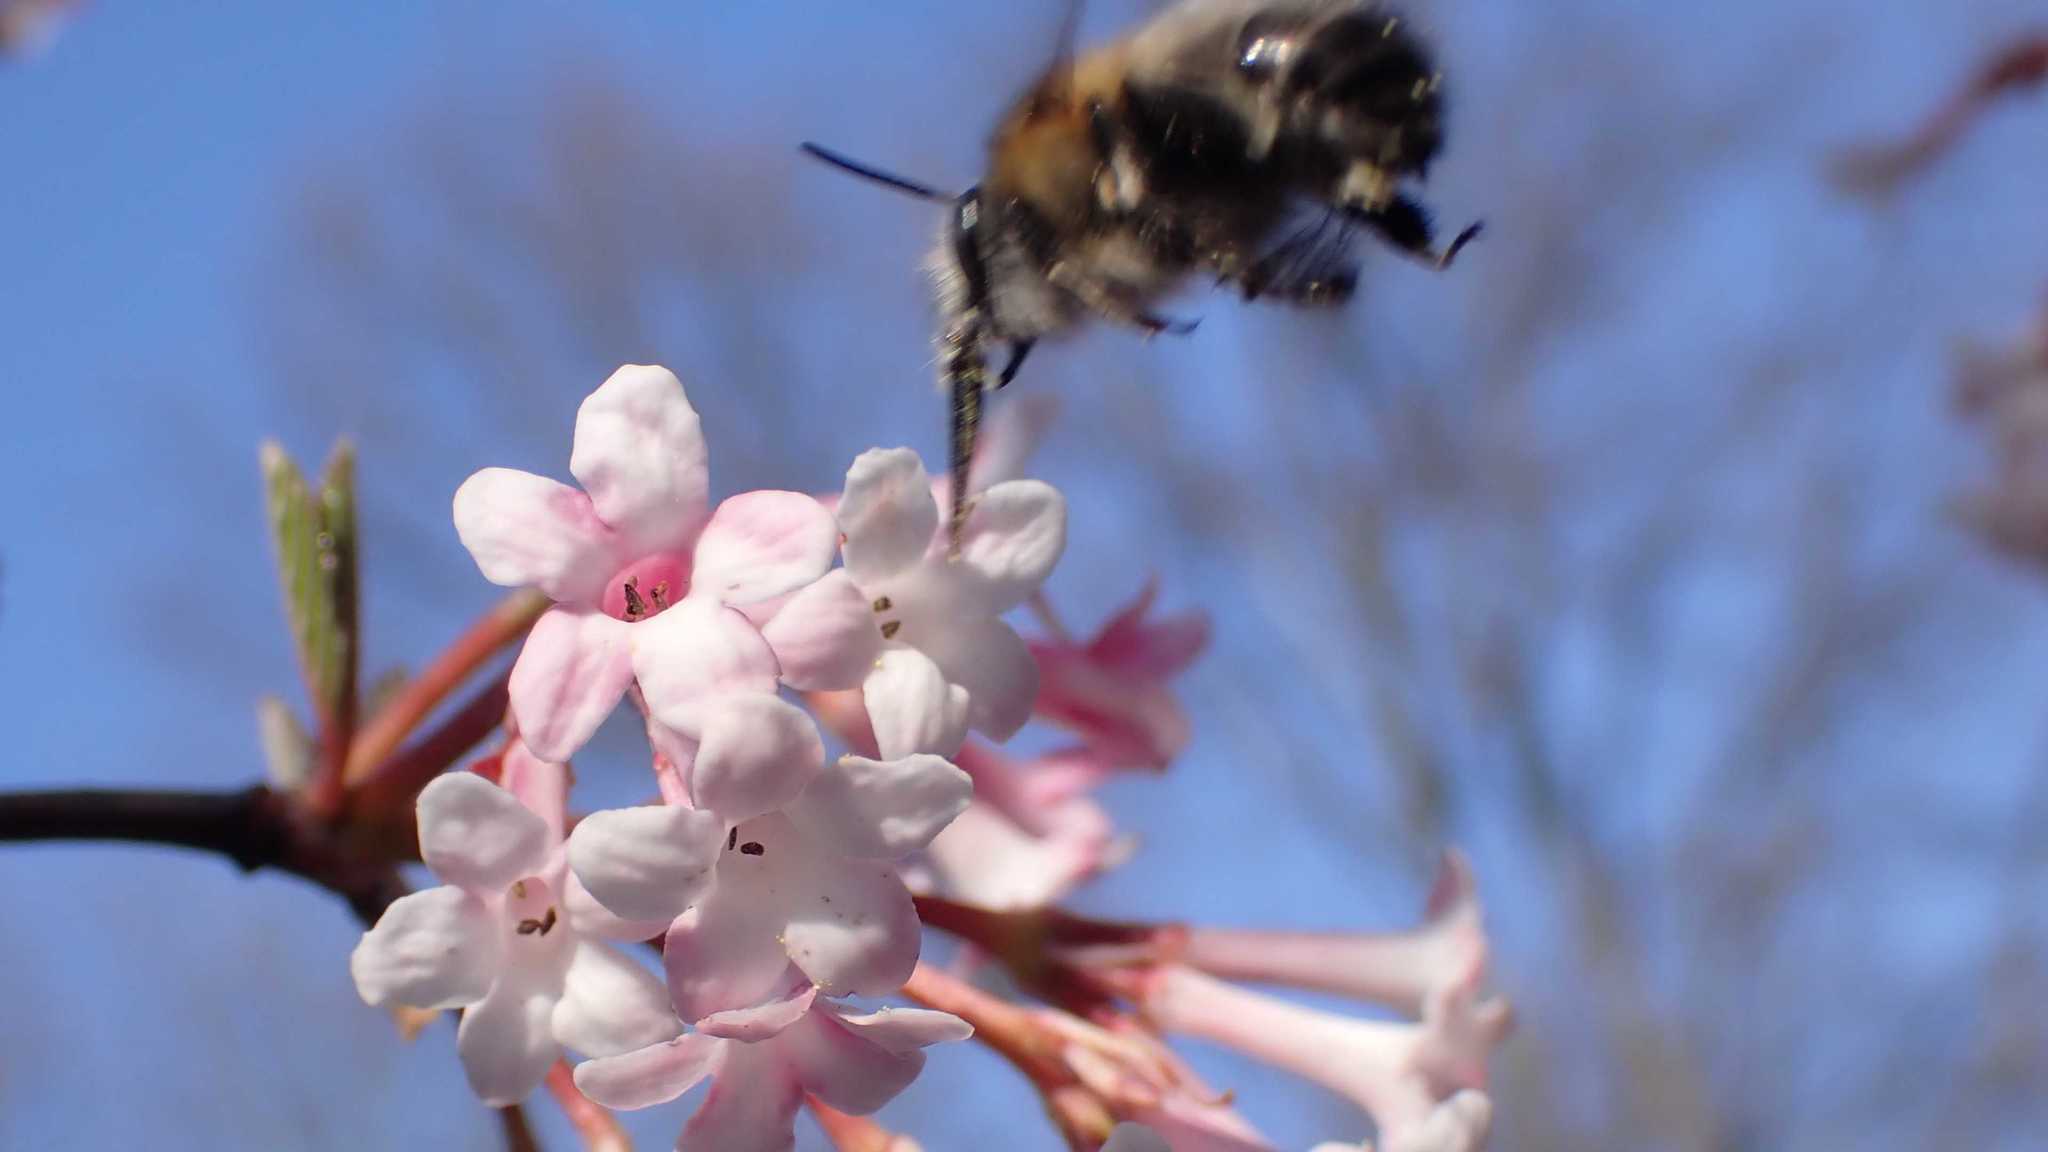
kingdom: Animalia
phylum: Arthropoda
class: Insecta
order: Hymenoptera
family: Apidae
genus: Anthophora
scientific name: Anthophora plumipes
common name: Hairy-footed flower bee
